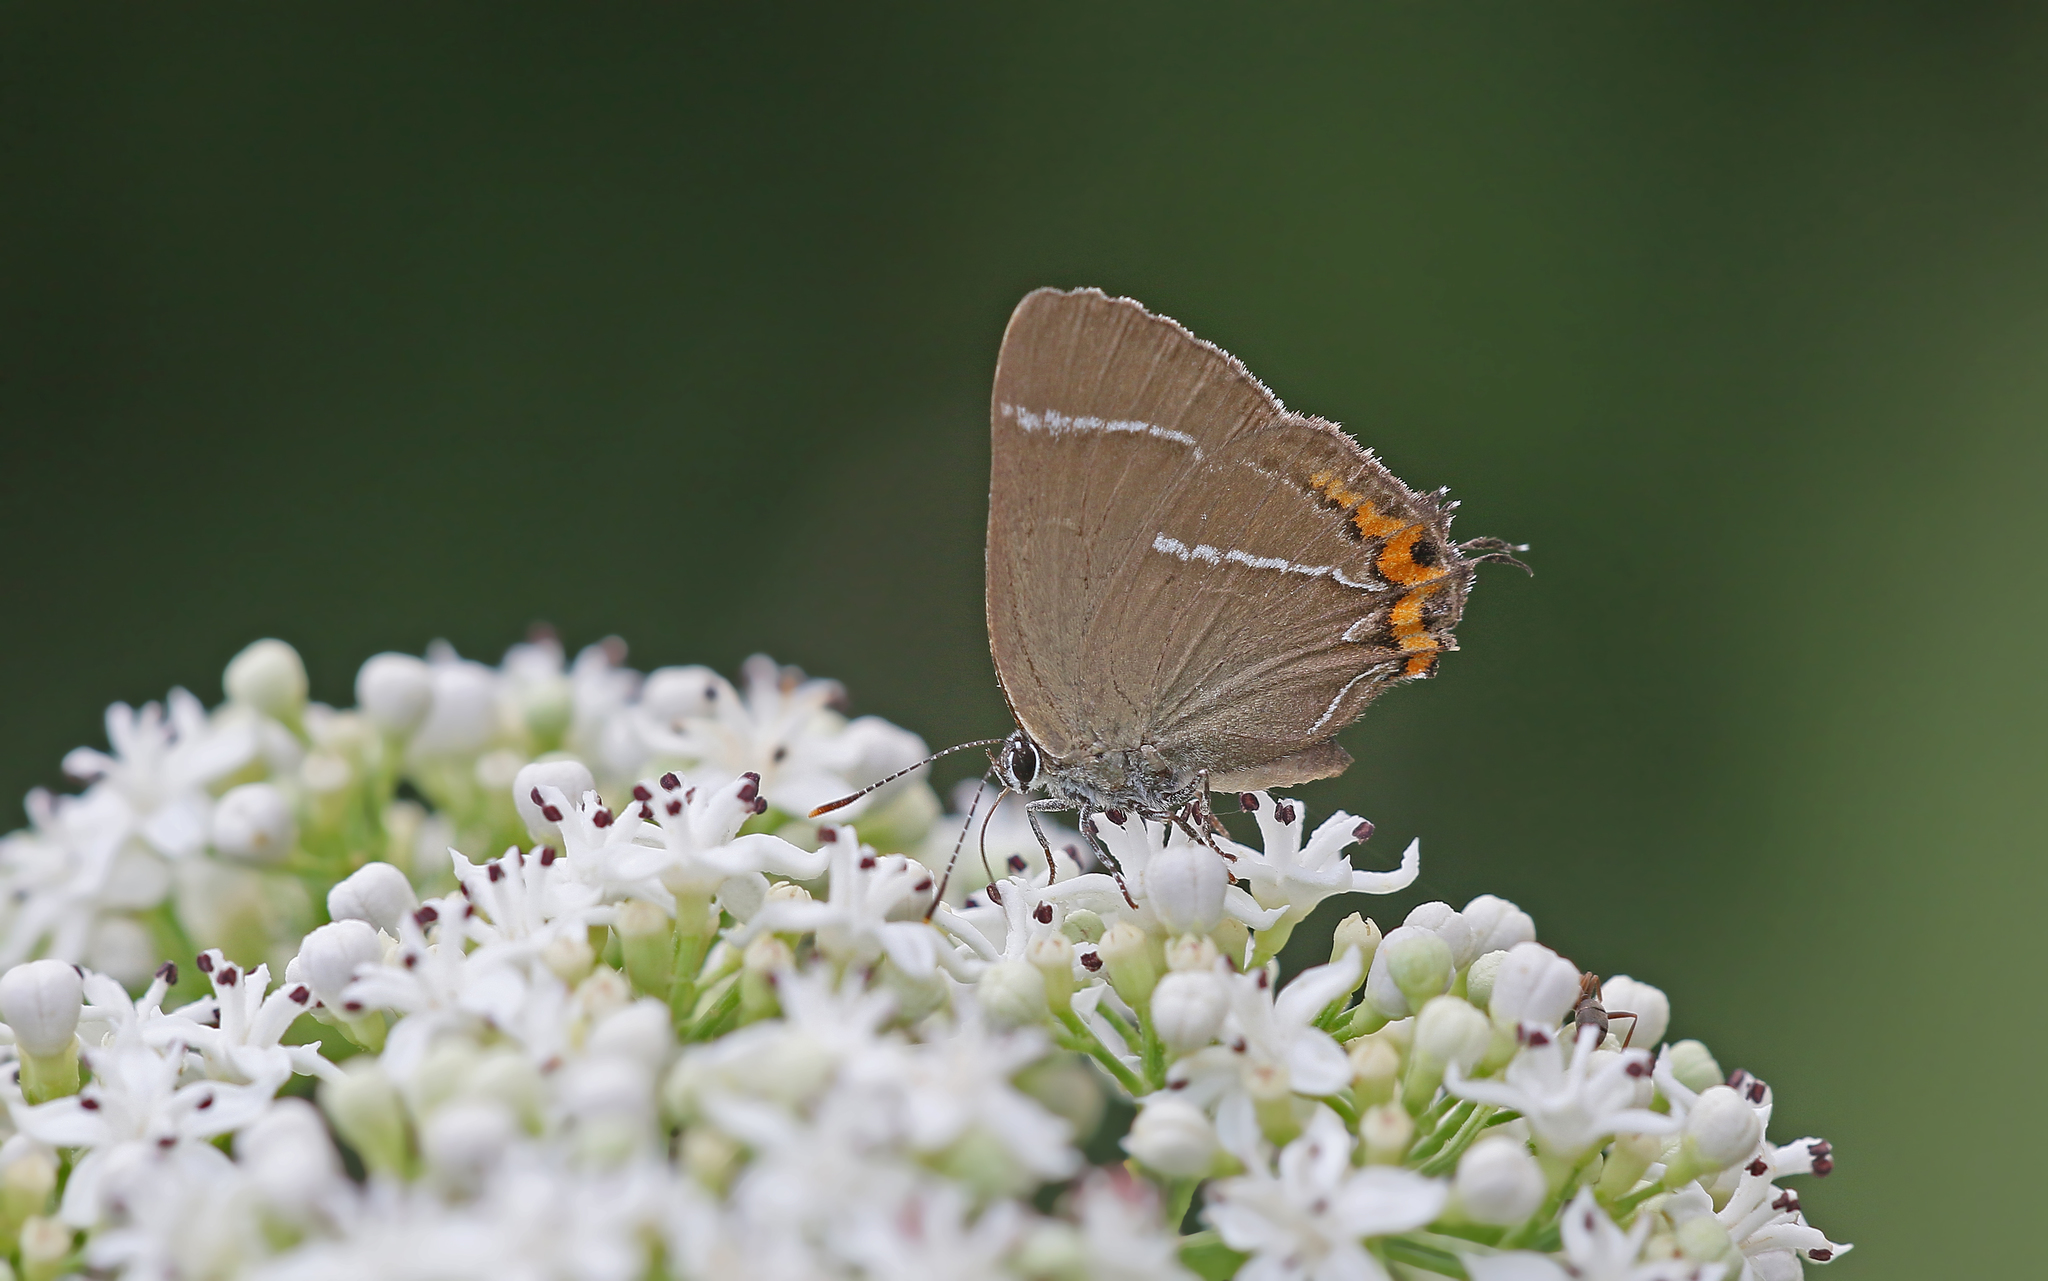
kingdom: Animalia
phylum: Arthropoda
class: Insecta
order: Lepidoptera
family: Lycaenidae
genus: Satyrium
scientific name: Satyrium w-album
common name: White-letter hairstreak
